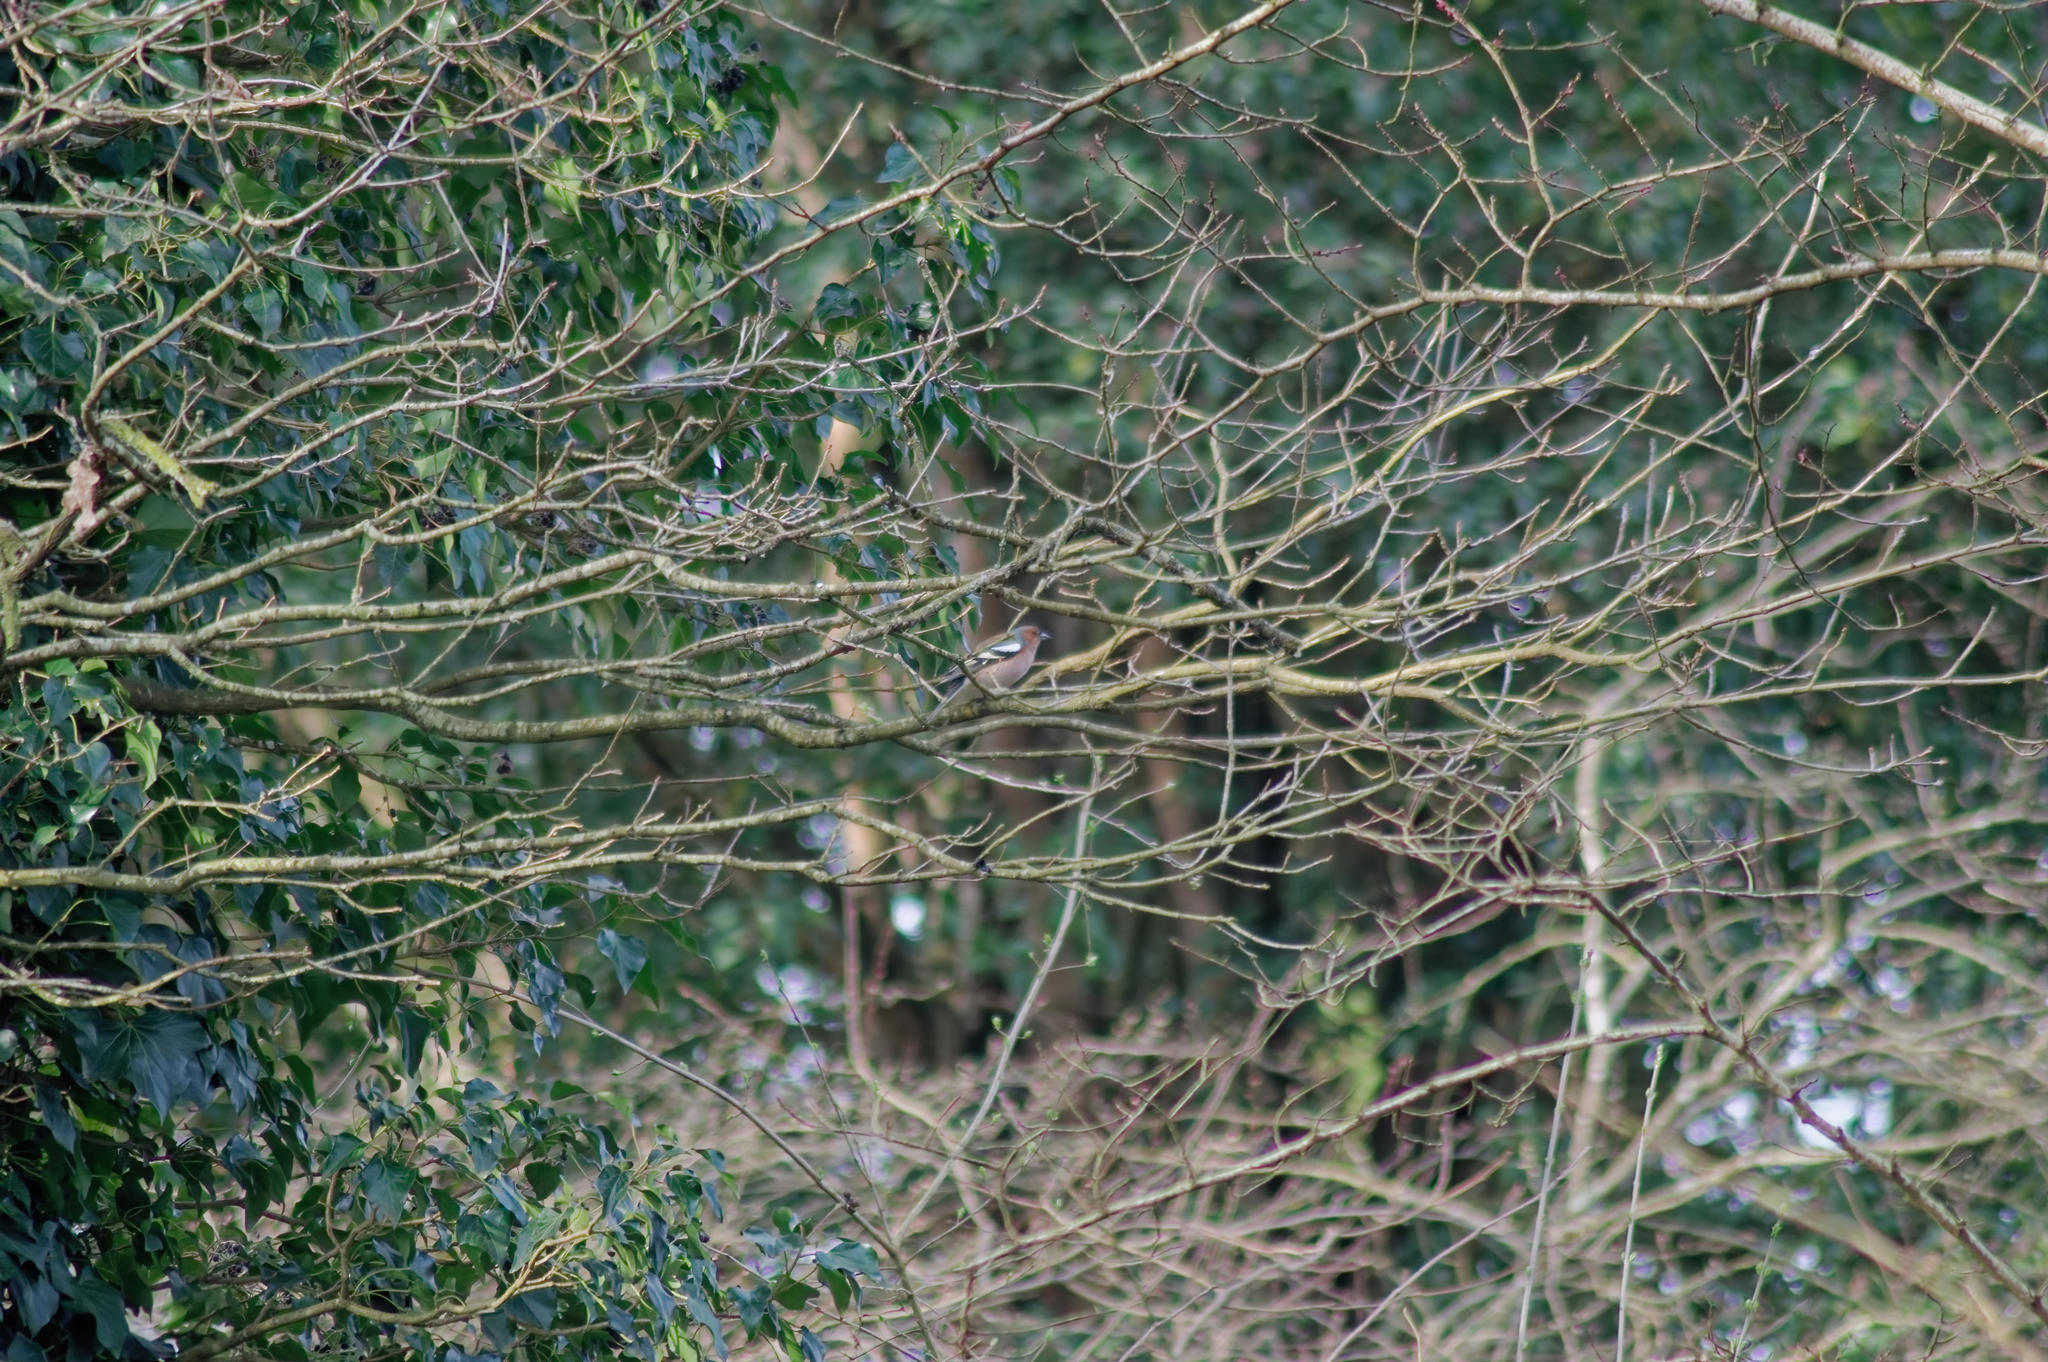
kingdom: Animalia
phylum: Chordata
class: Aves
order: Passeriformes
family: Fringillidae
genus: Fringilla
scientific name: Fringilla coelebs
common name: Common chaffinch
